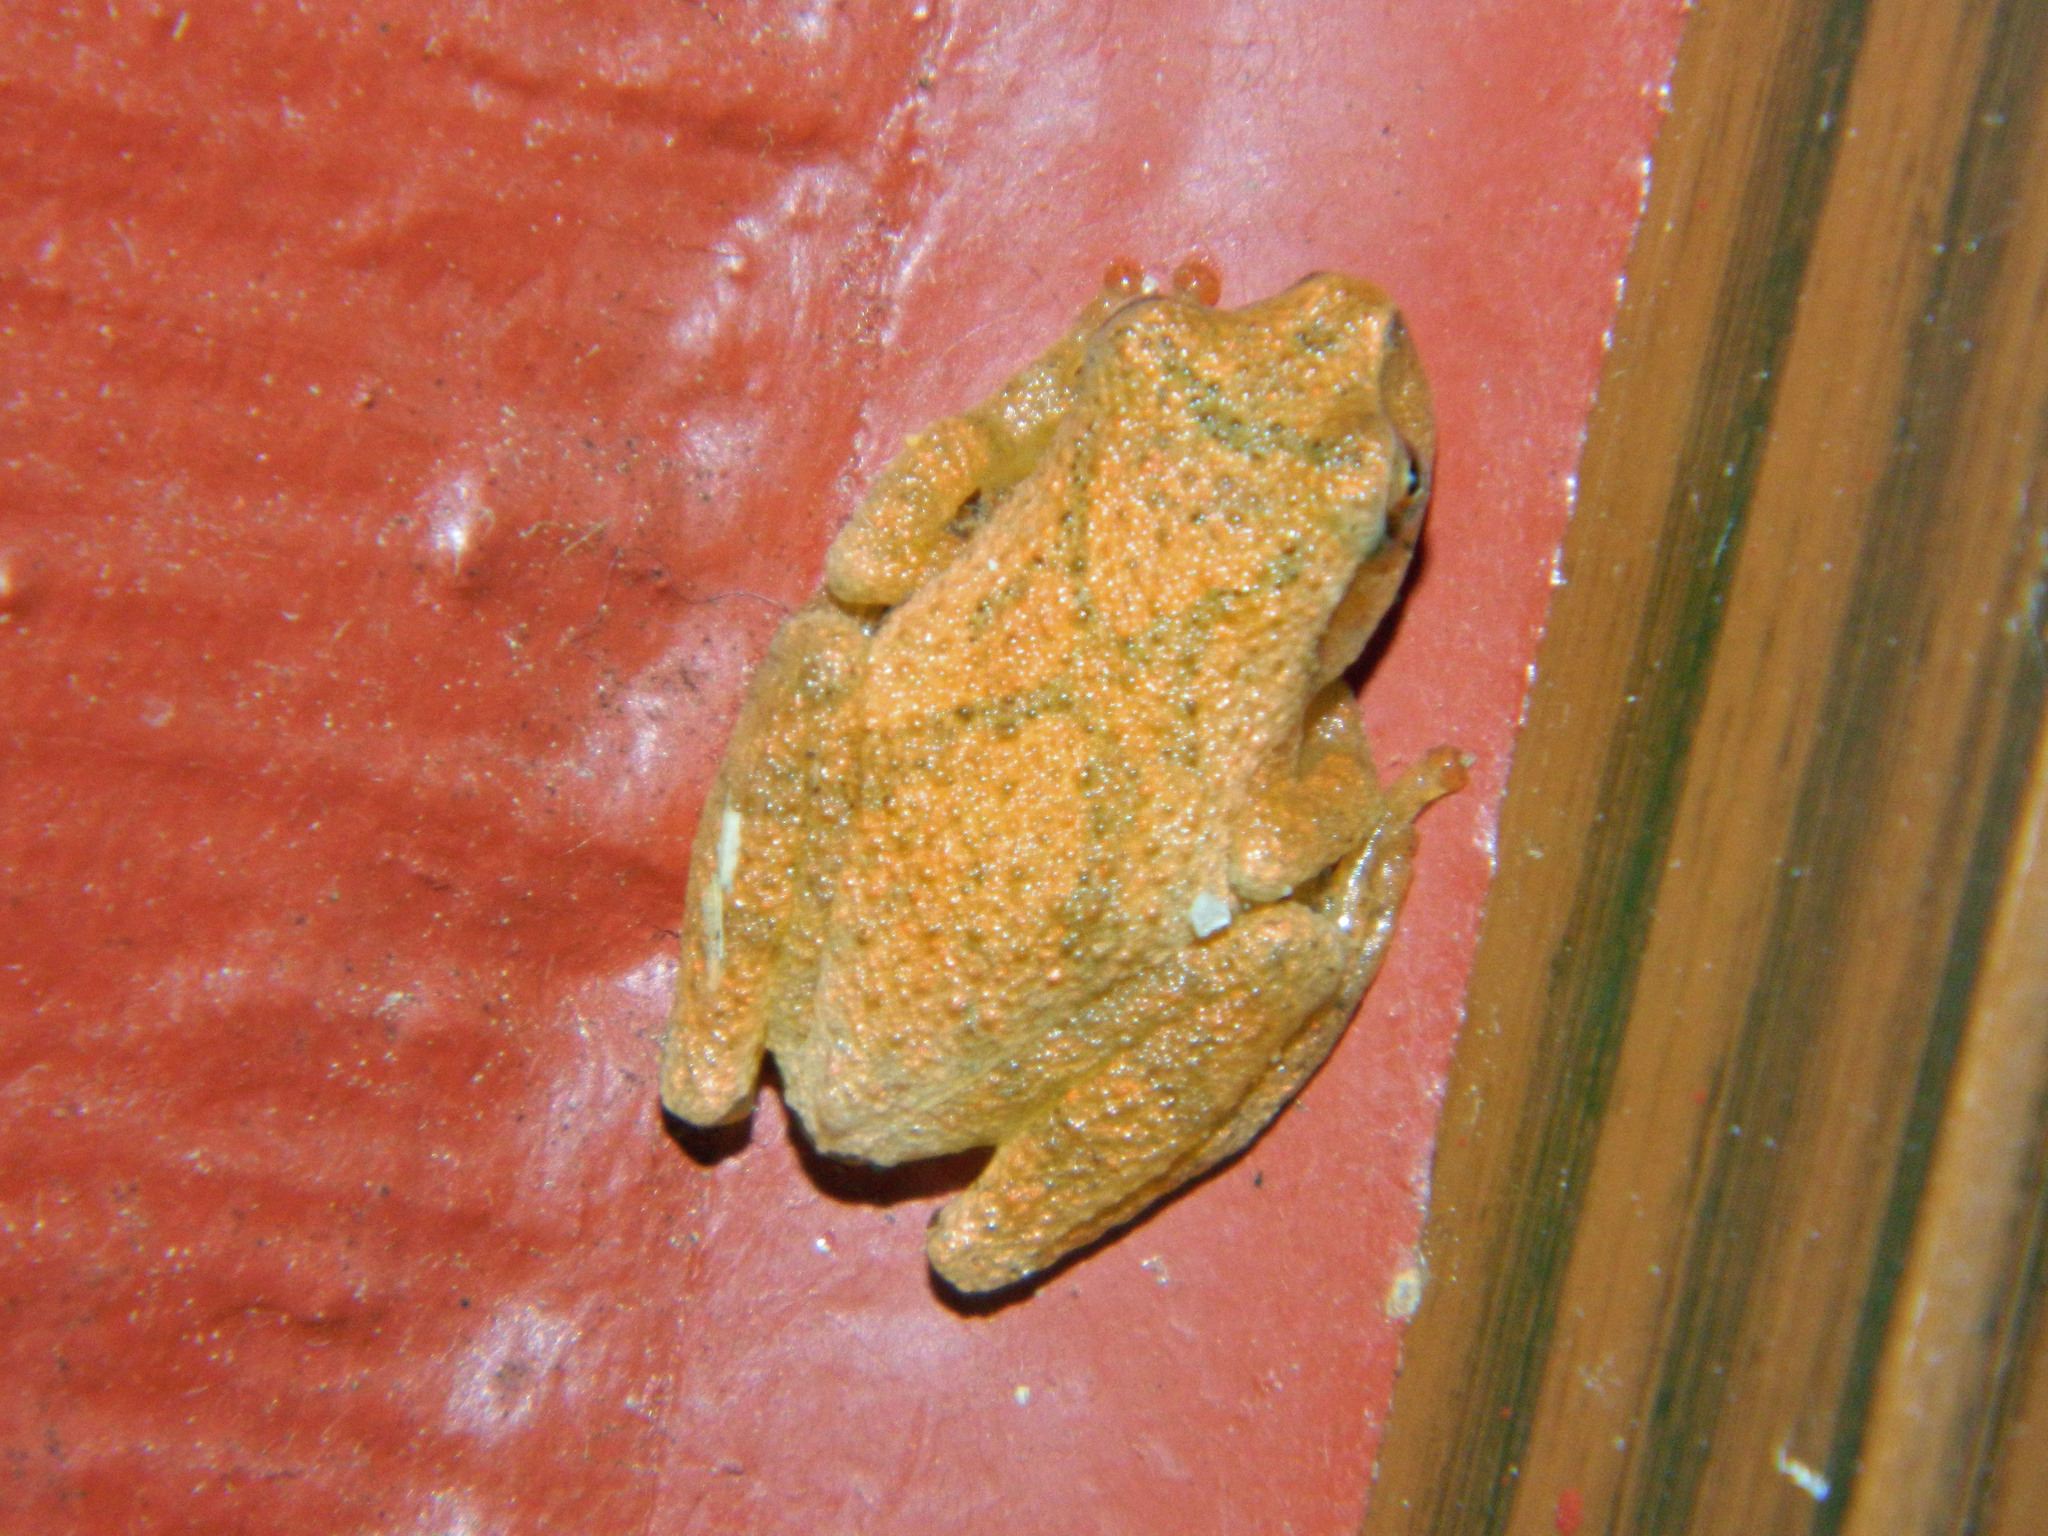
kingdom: Animalia
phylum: Chordata
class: Amphibia
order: Anura
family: Hylidae
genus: Pseudacris
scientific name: Pseudacris crucifer
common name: Spring peeper
